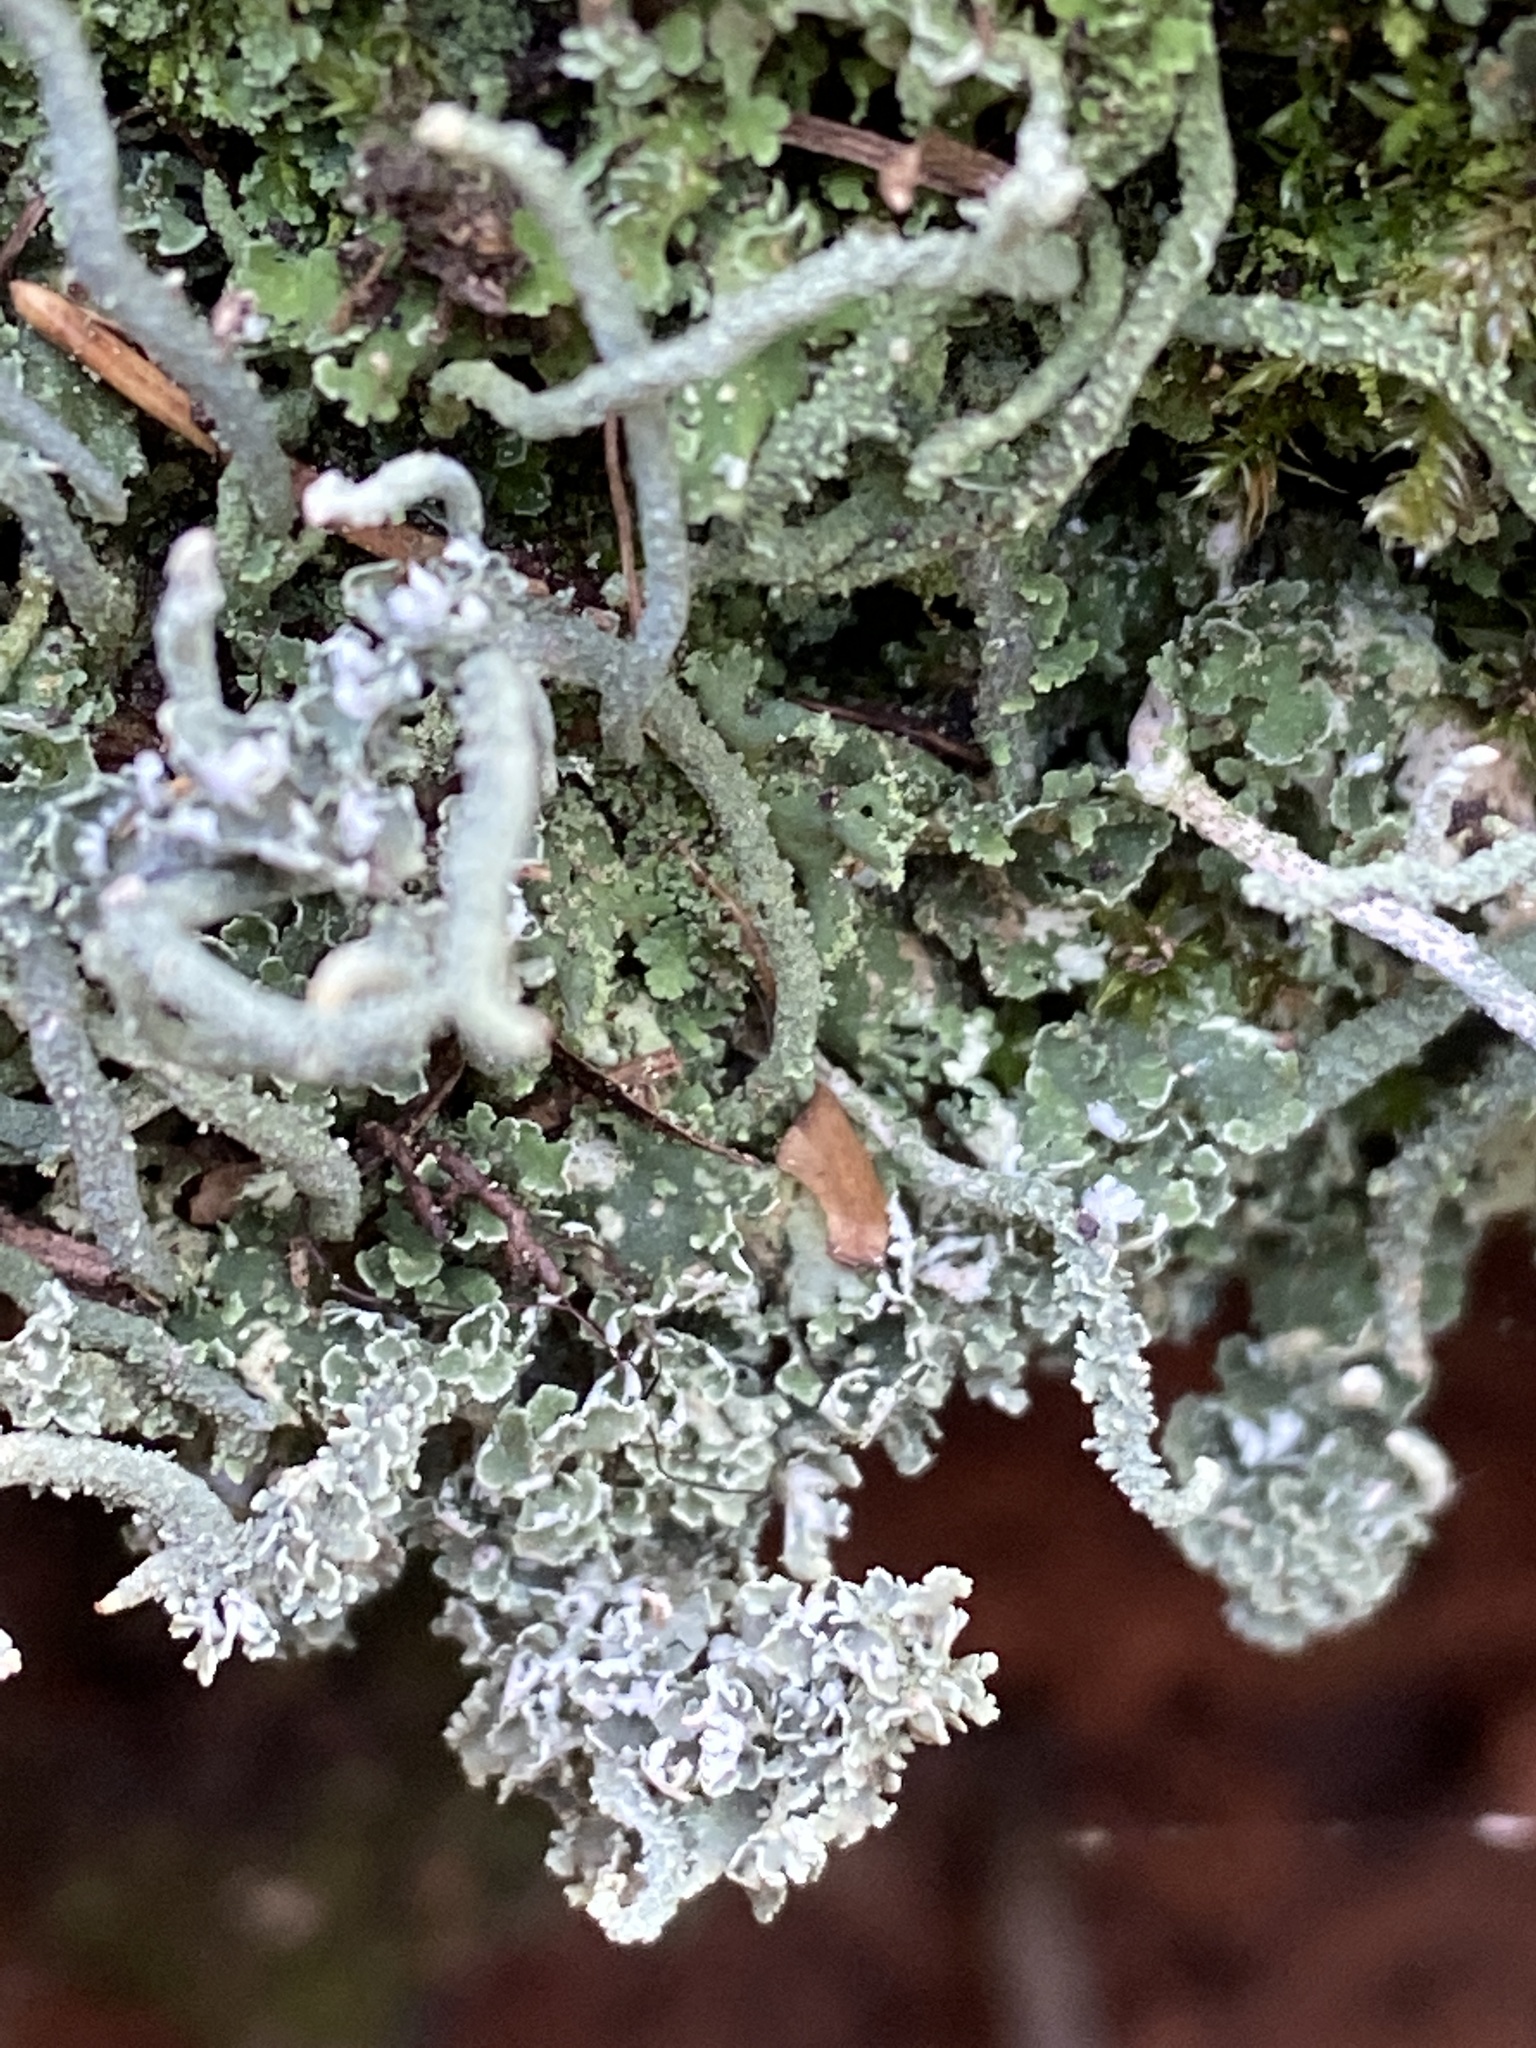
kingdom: Fungi
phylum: Ascomycota
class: Lecanoromycetes
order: Lecanorales
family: Cladoniaceae
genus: Cladonia
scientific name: Cladonia cornuta
